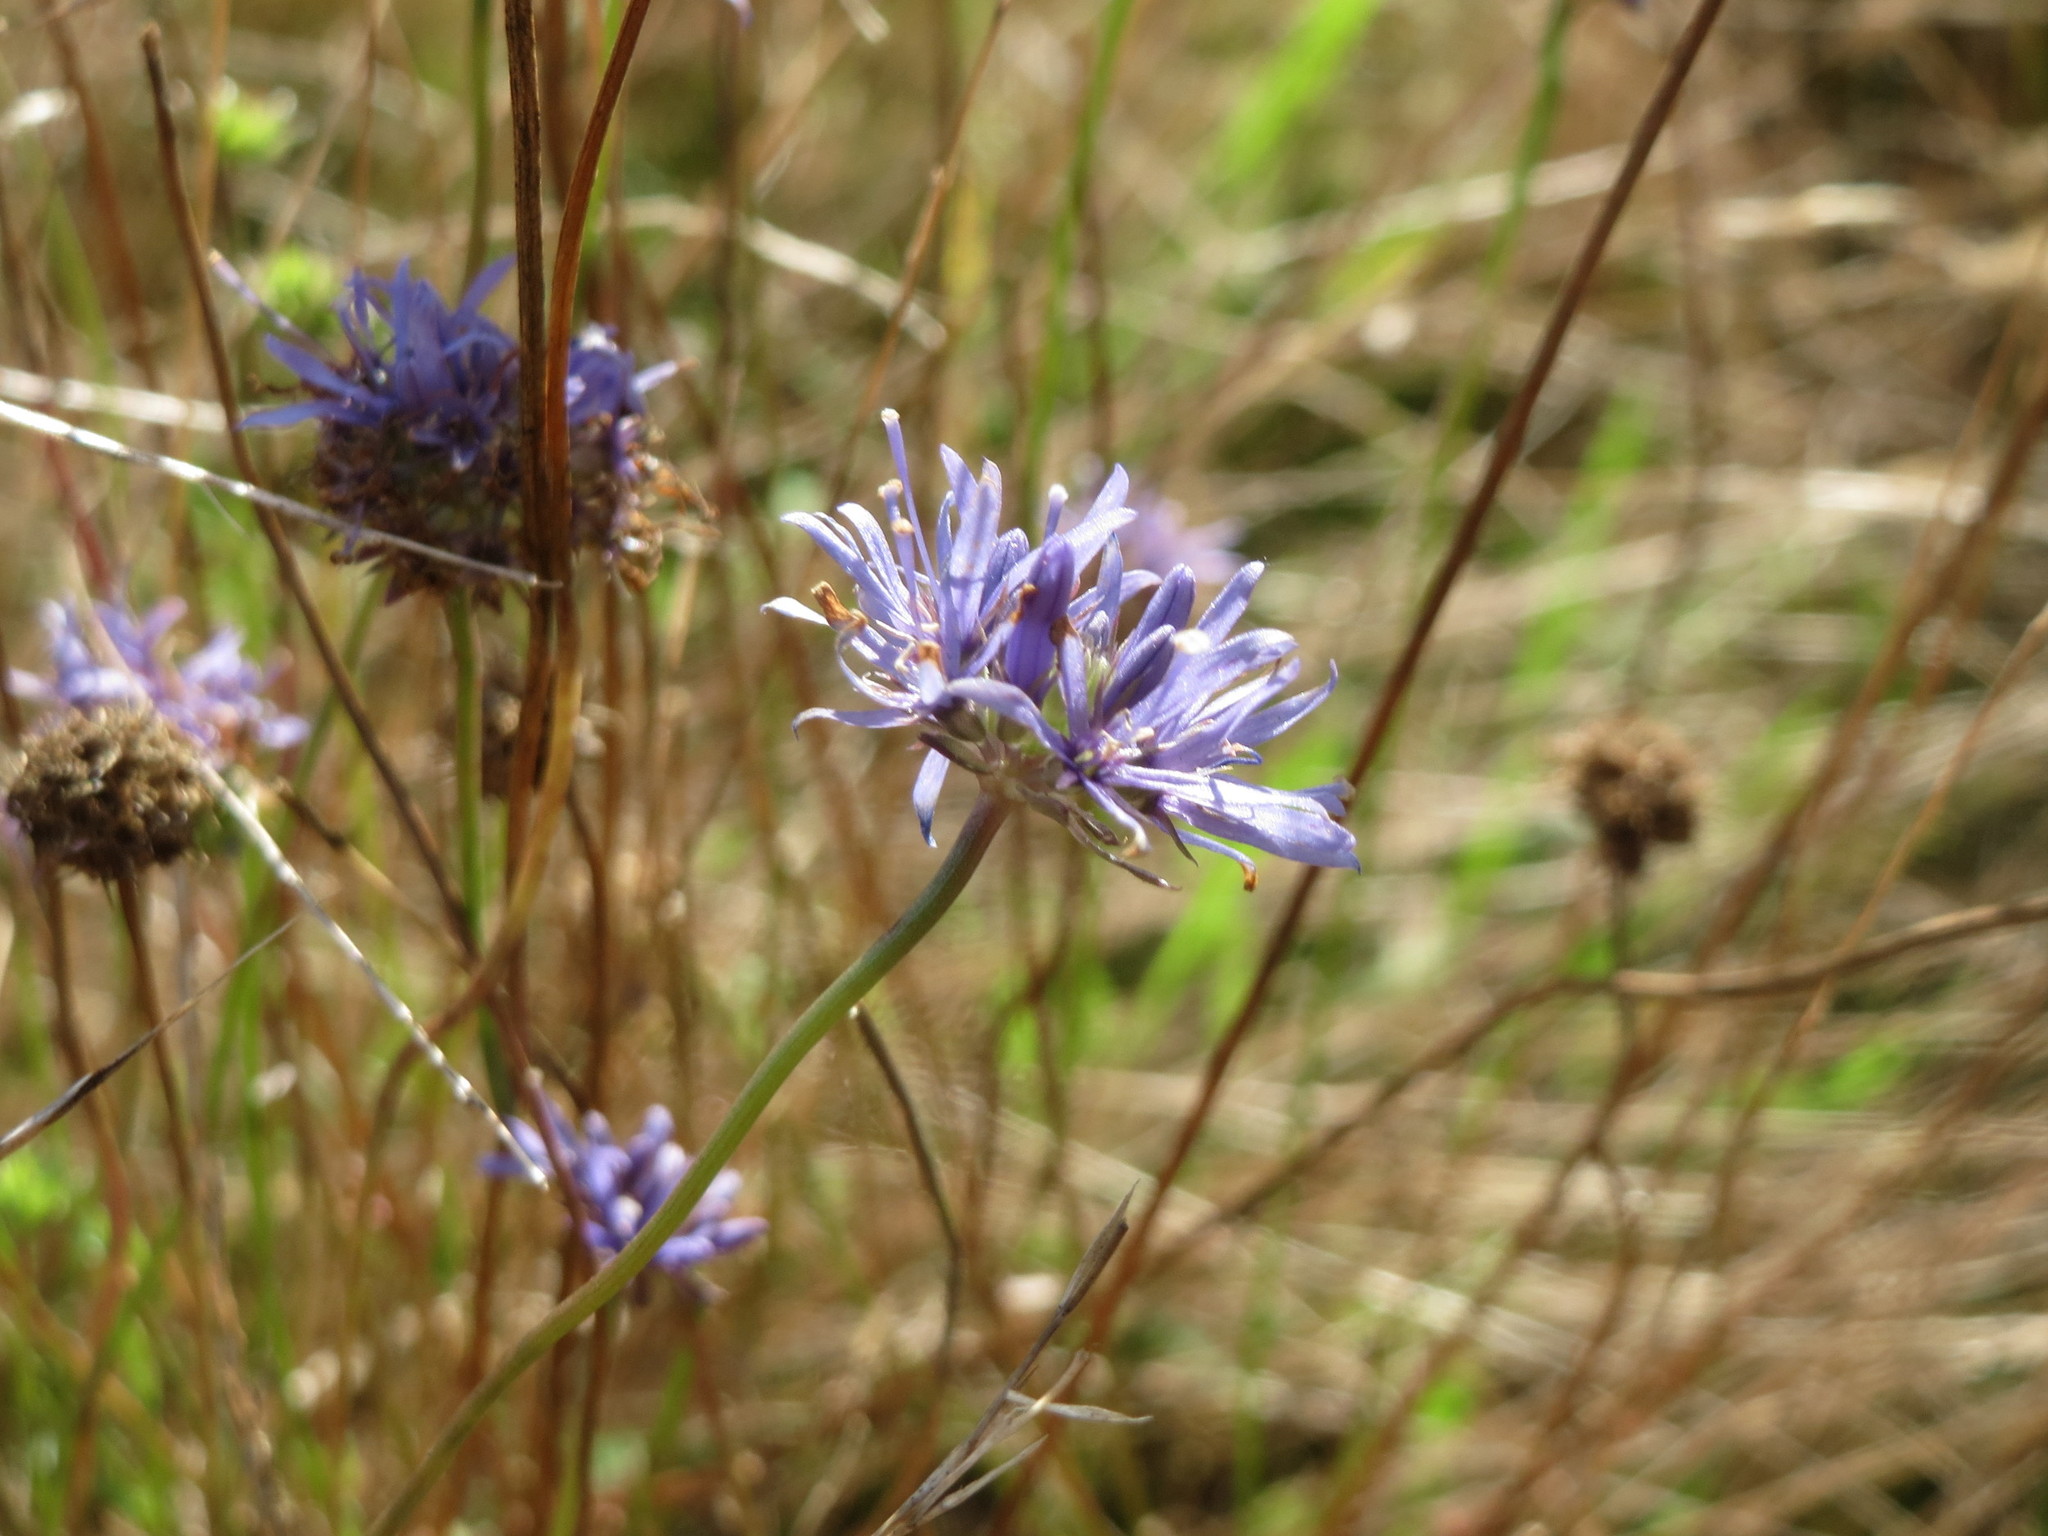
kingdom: Plantae
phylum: Tracheophyta
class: Magnoliopsida
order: Asterales
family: Campanulaceae
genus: Jasione
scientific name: Jasione montana
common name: Sheep's-bit
